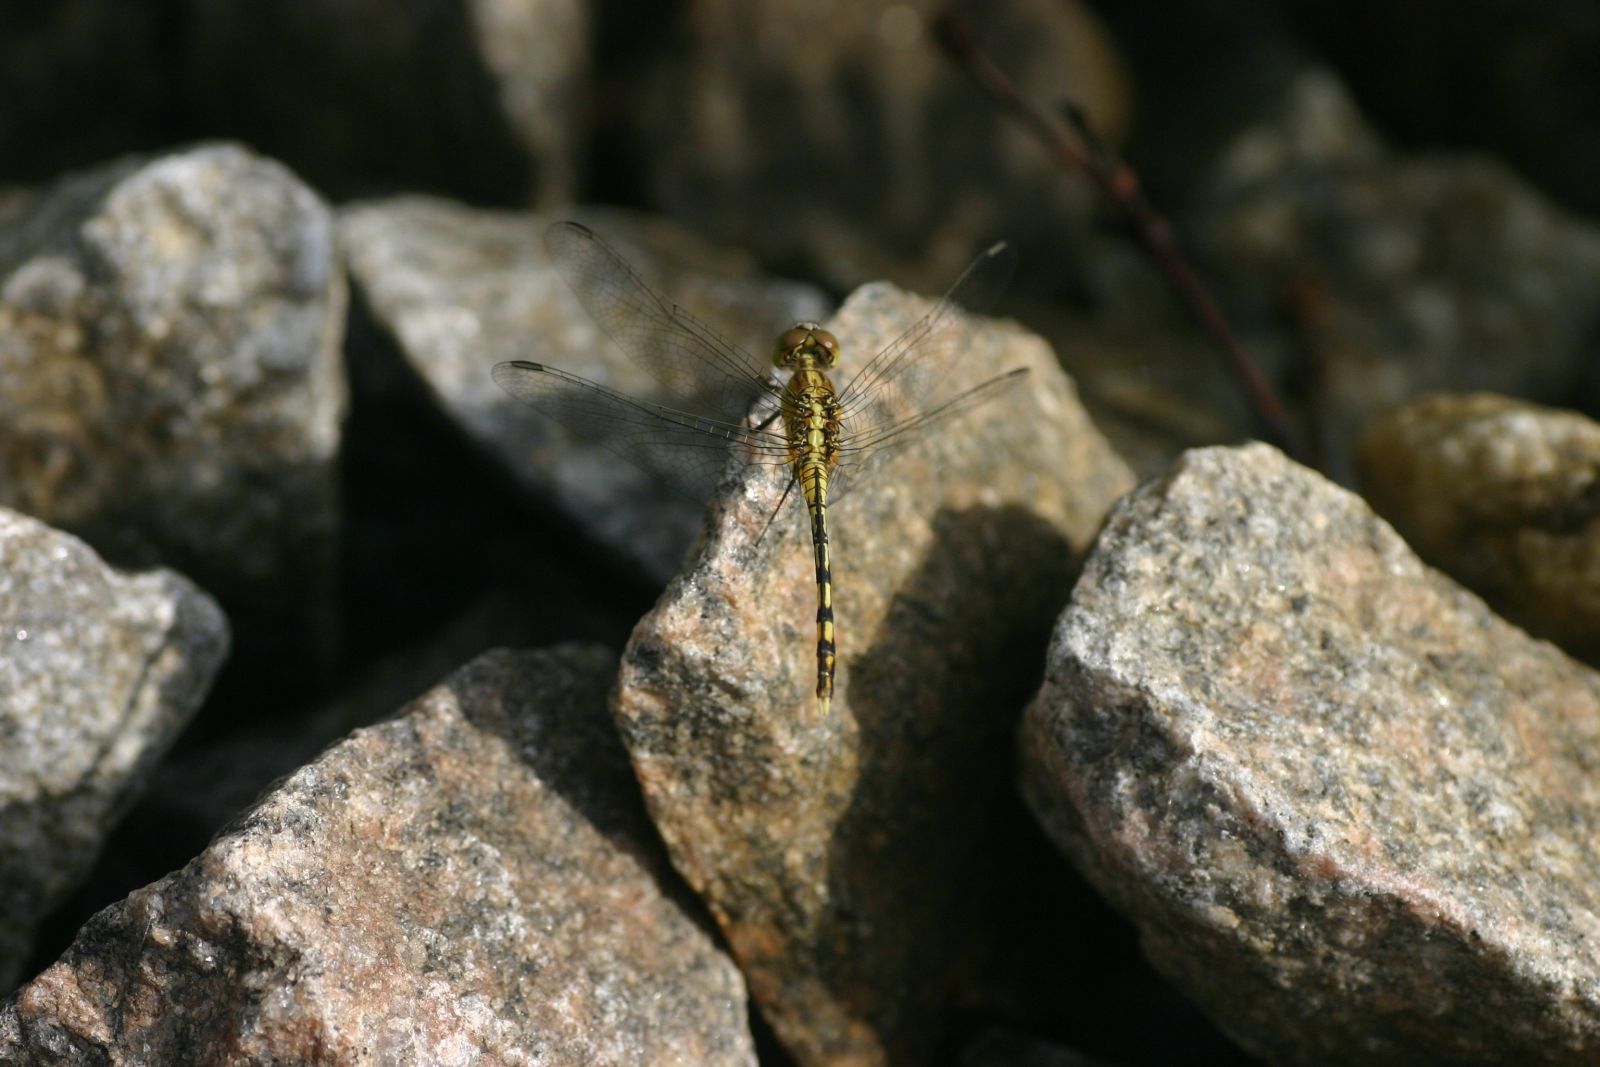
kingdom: Animalia
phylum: Arthropoda
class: Insecta
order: Odonata
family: Libellulidae
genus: Diplacodes
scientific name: Diplacodes trivialis
